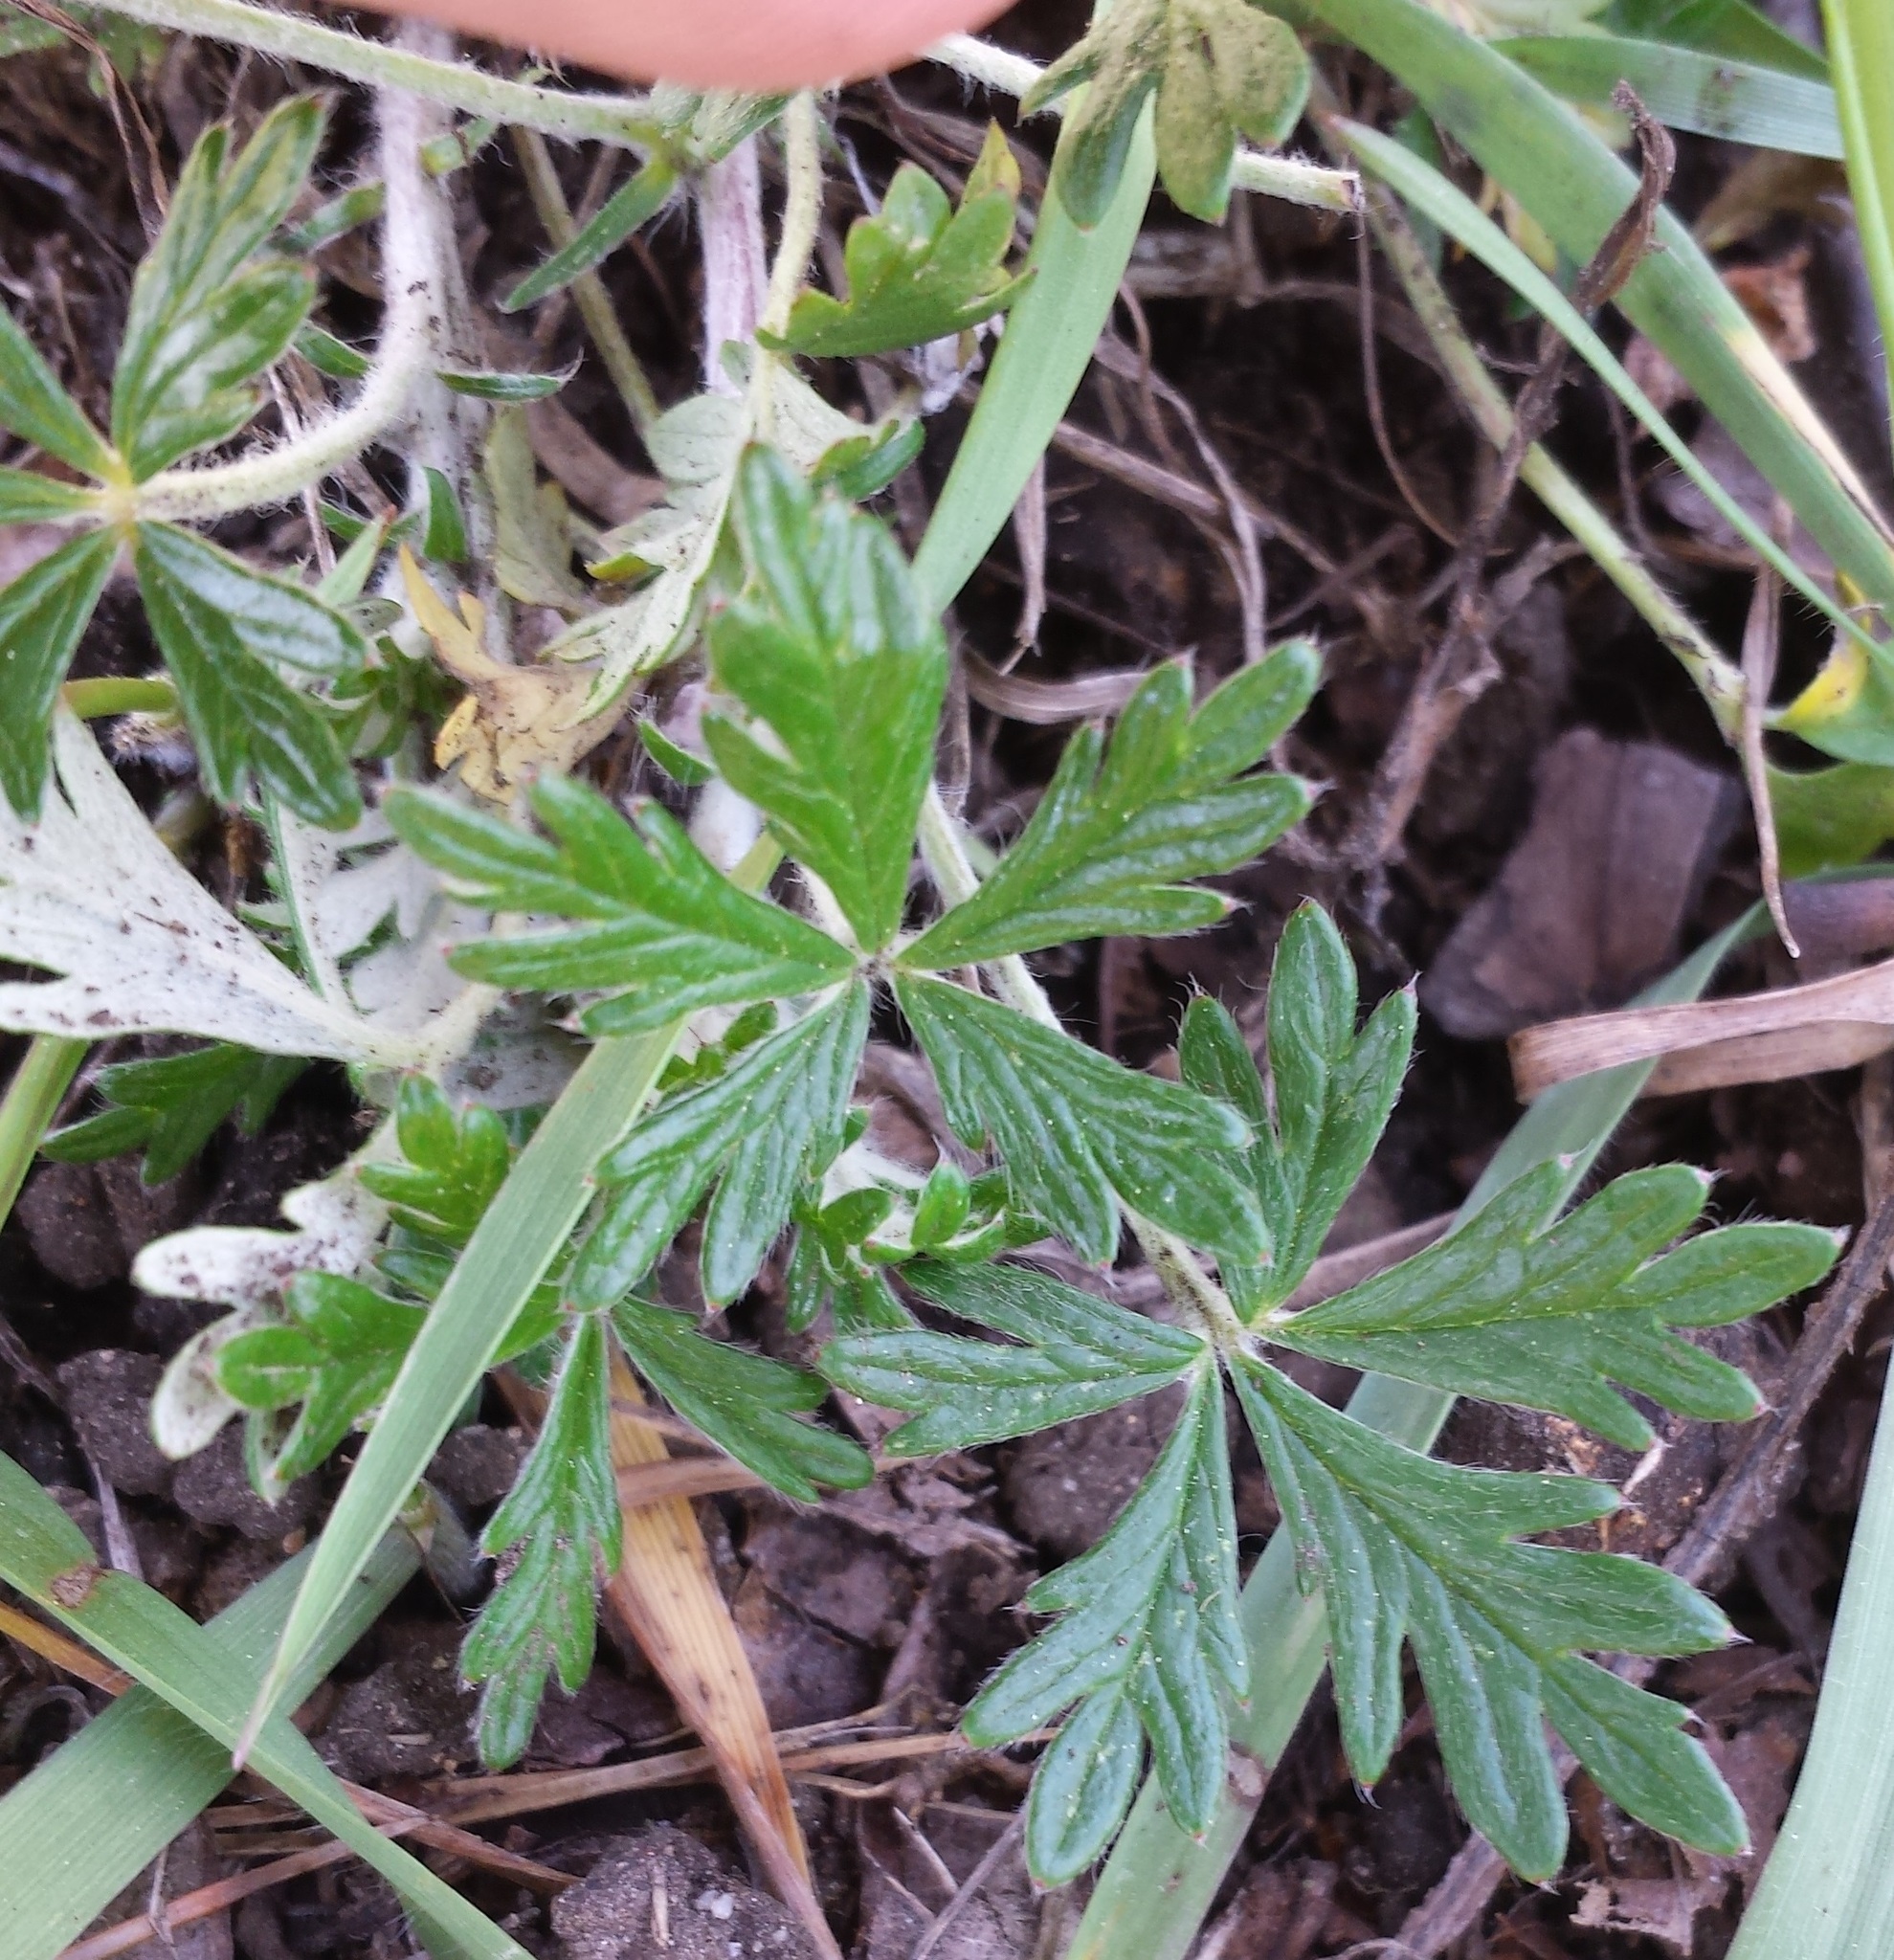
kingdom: Plantae
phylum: Tracheophyta
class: Magnoliopsida
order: Rosales
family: Rosaceae
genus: Potentilla
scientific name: Potentilla argentea
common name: Hoary cinquefoil
